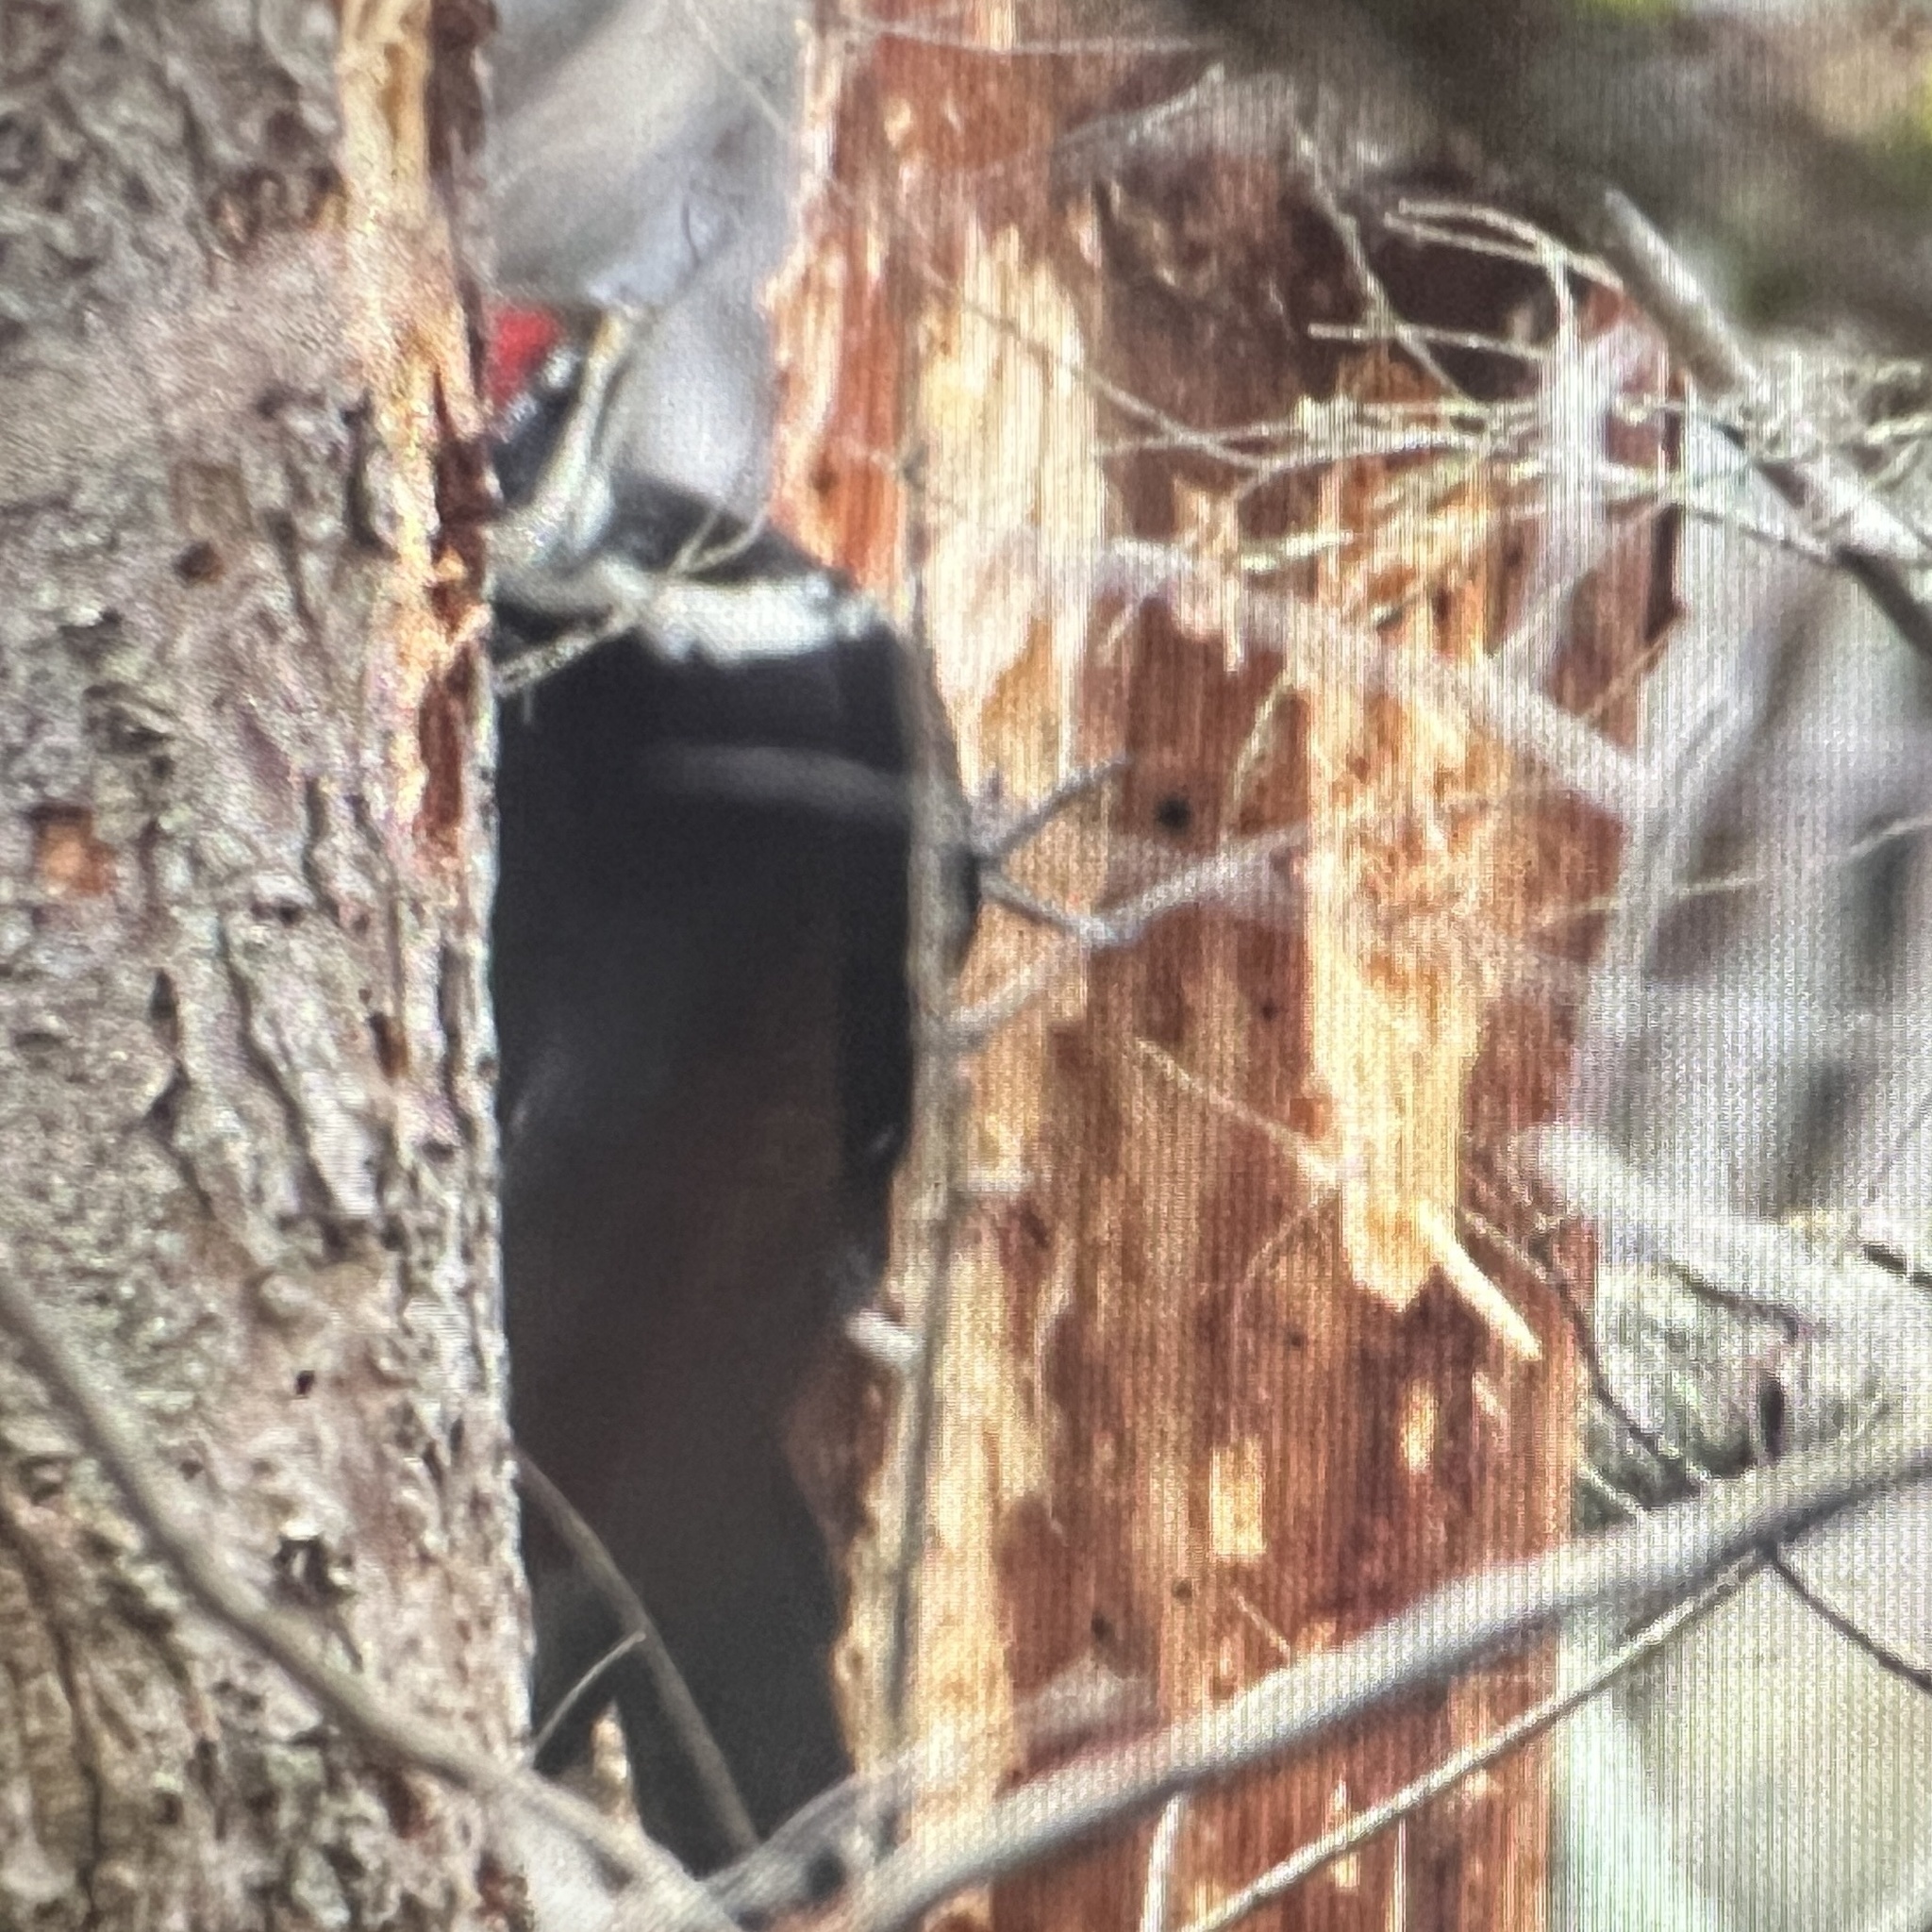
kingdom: Animalia
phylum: Chordata
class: Aves
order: Piciformes
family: Picidae
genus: Dryocopus
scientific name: Dryocopus pileatus
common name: Pileated woodpecker
